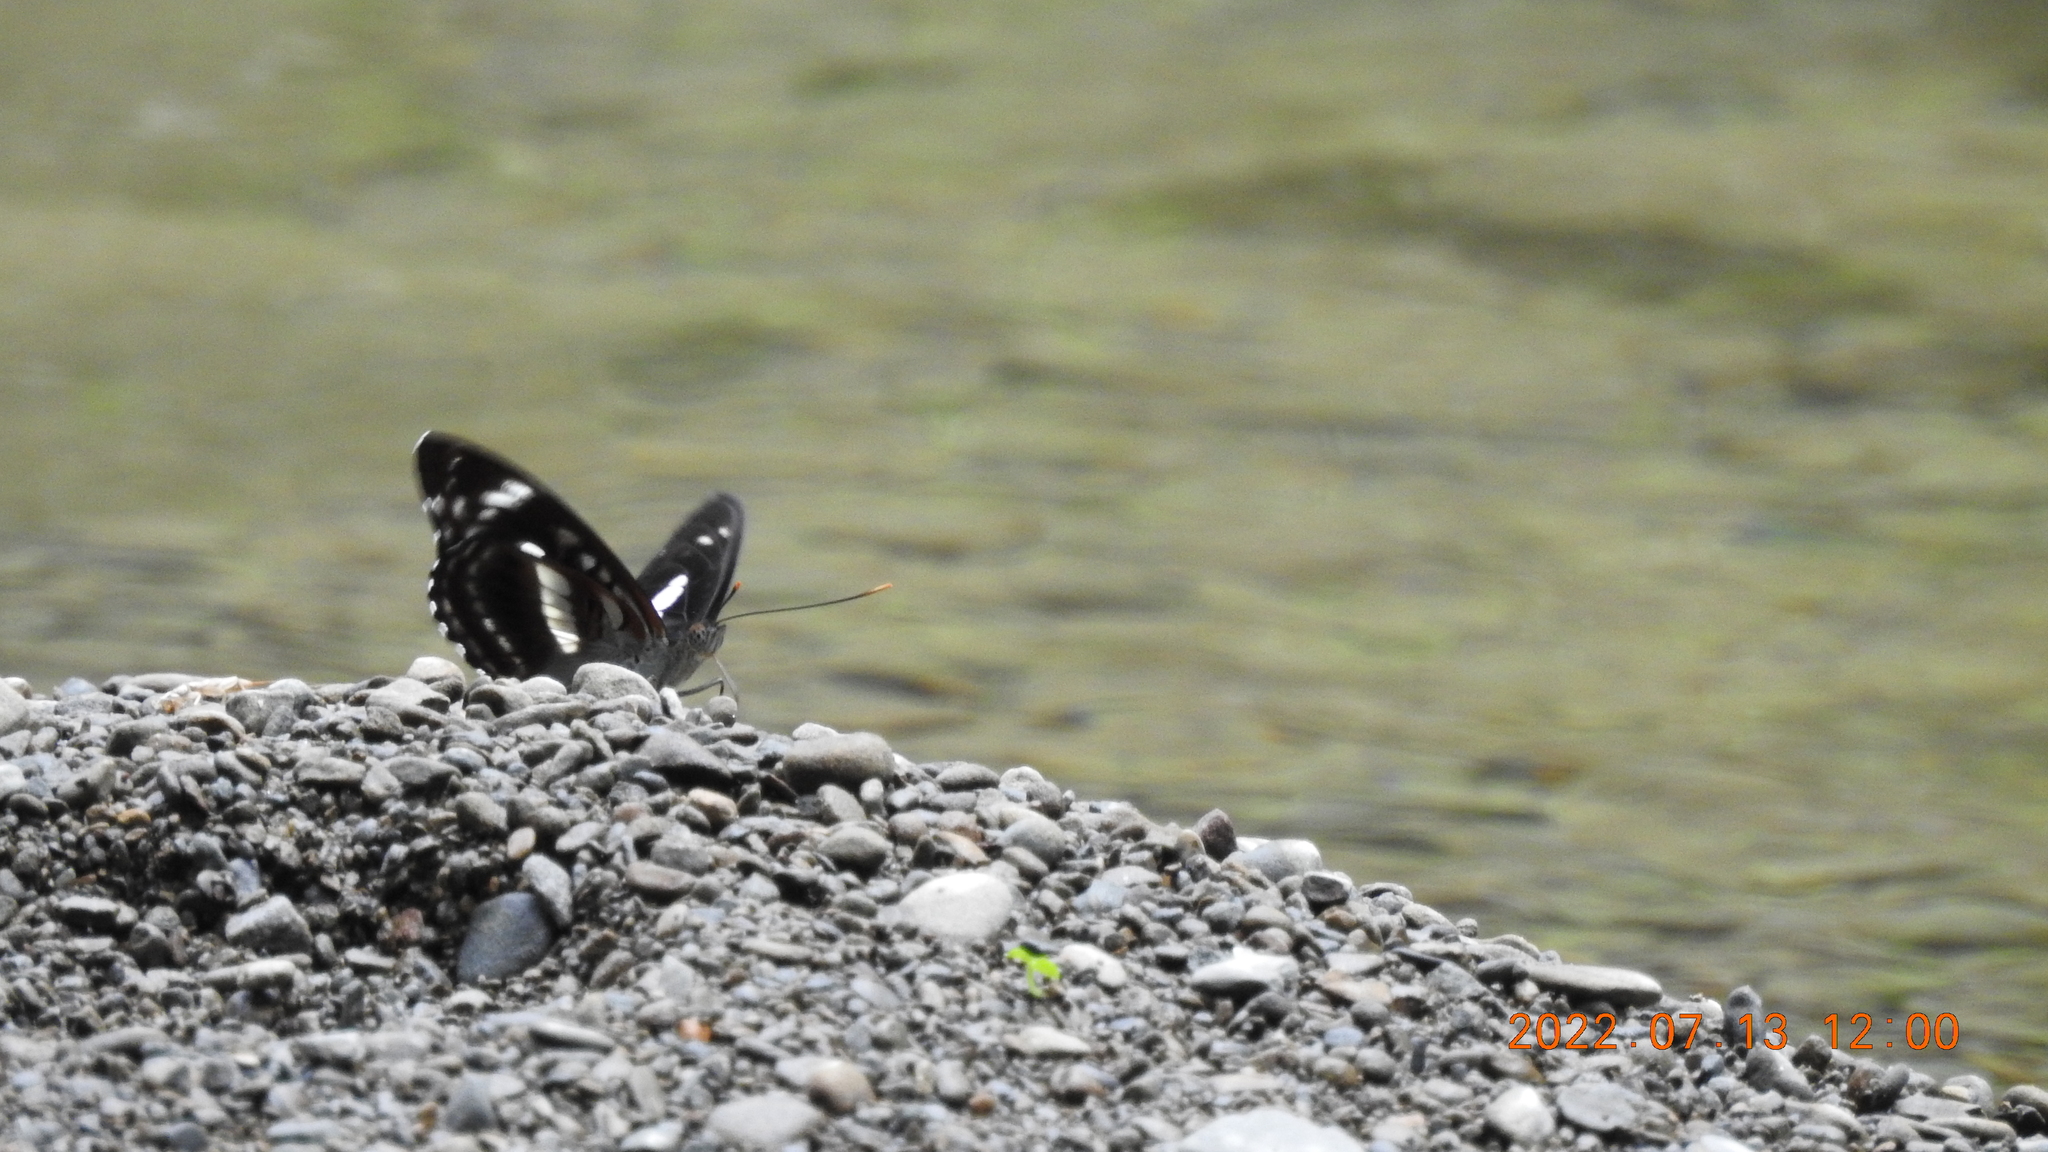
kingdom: Animalia
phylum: Arthropoda
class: Insecta
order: Lepidoptera
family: Nymphalidae
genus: Parathyma
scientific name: Parathyma selenophora
